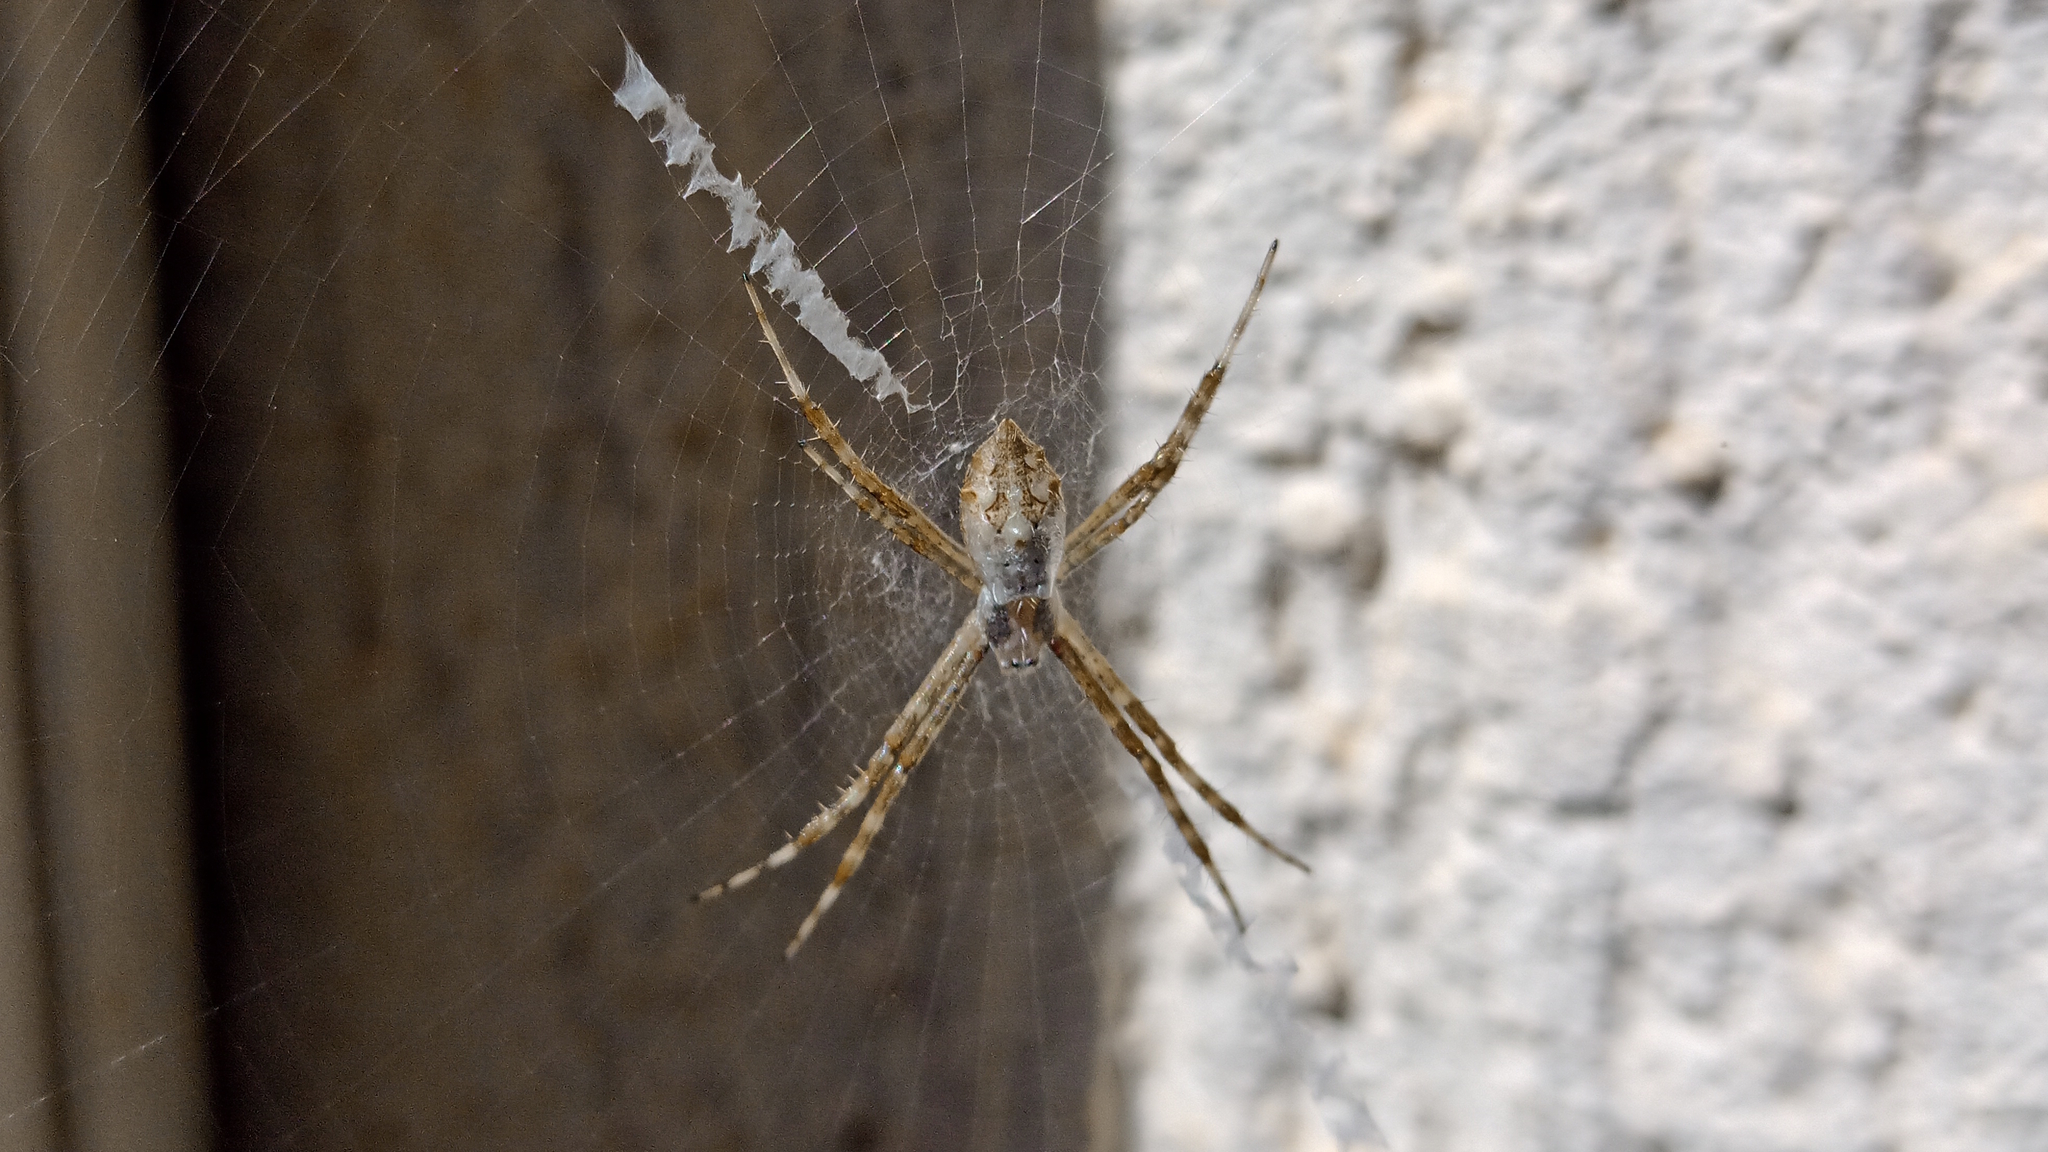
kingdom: Animalia
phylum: Arthropoda
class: Arachnida
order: Araneae
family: Araneidae
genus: Argiope
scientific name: Argiope argentata
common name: Orb weavers
